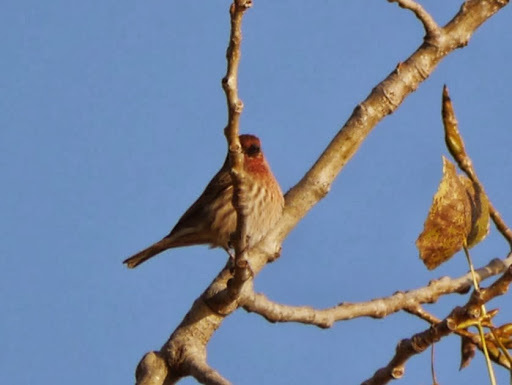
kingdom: Animalia
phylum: Chordata
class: Aves
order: Passeriformes
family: Fringillidae
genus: Haemorhous
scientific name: Haemorhous mexicanus
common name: House finch
